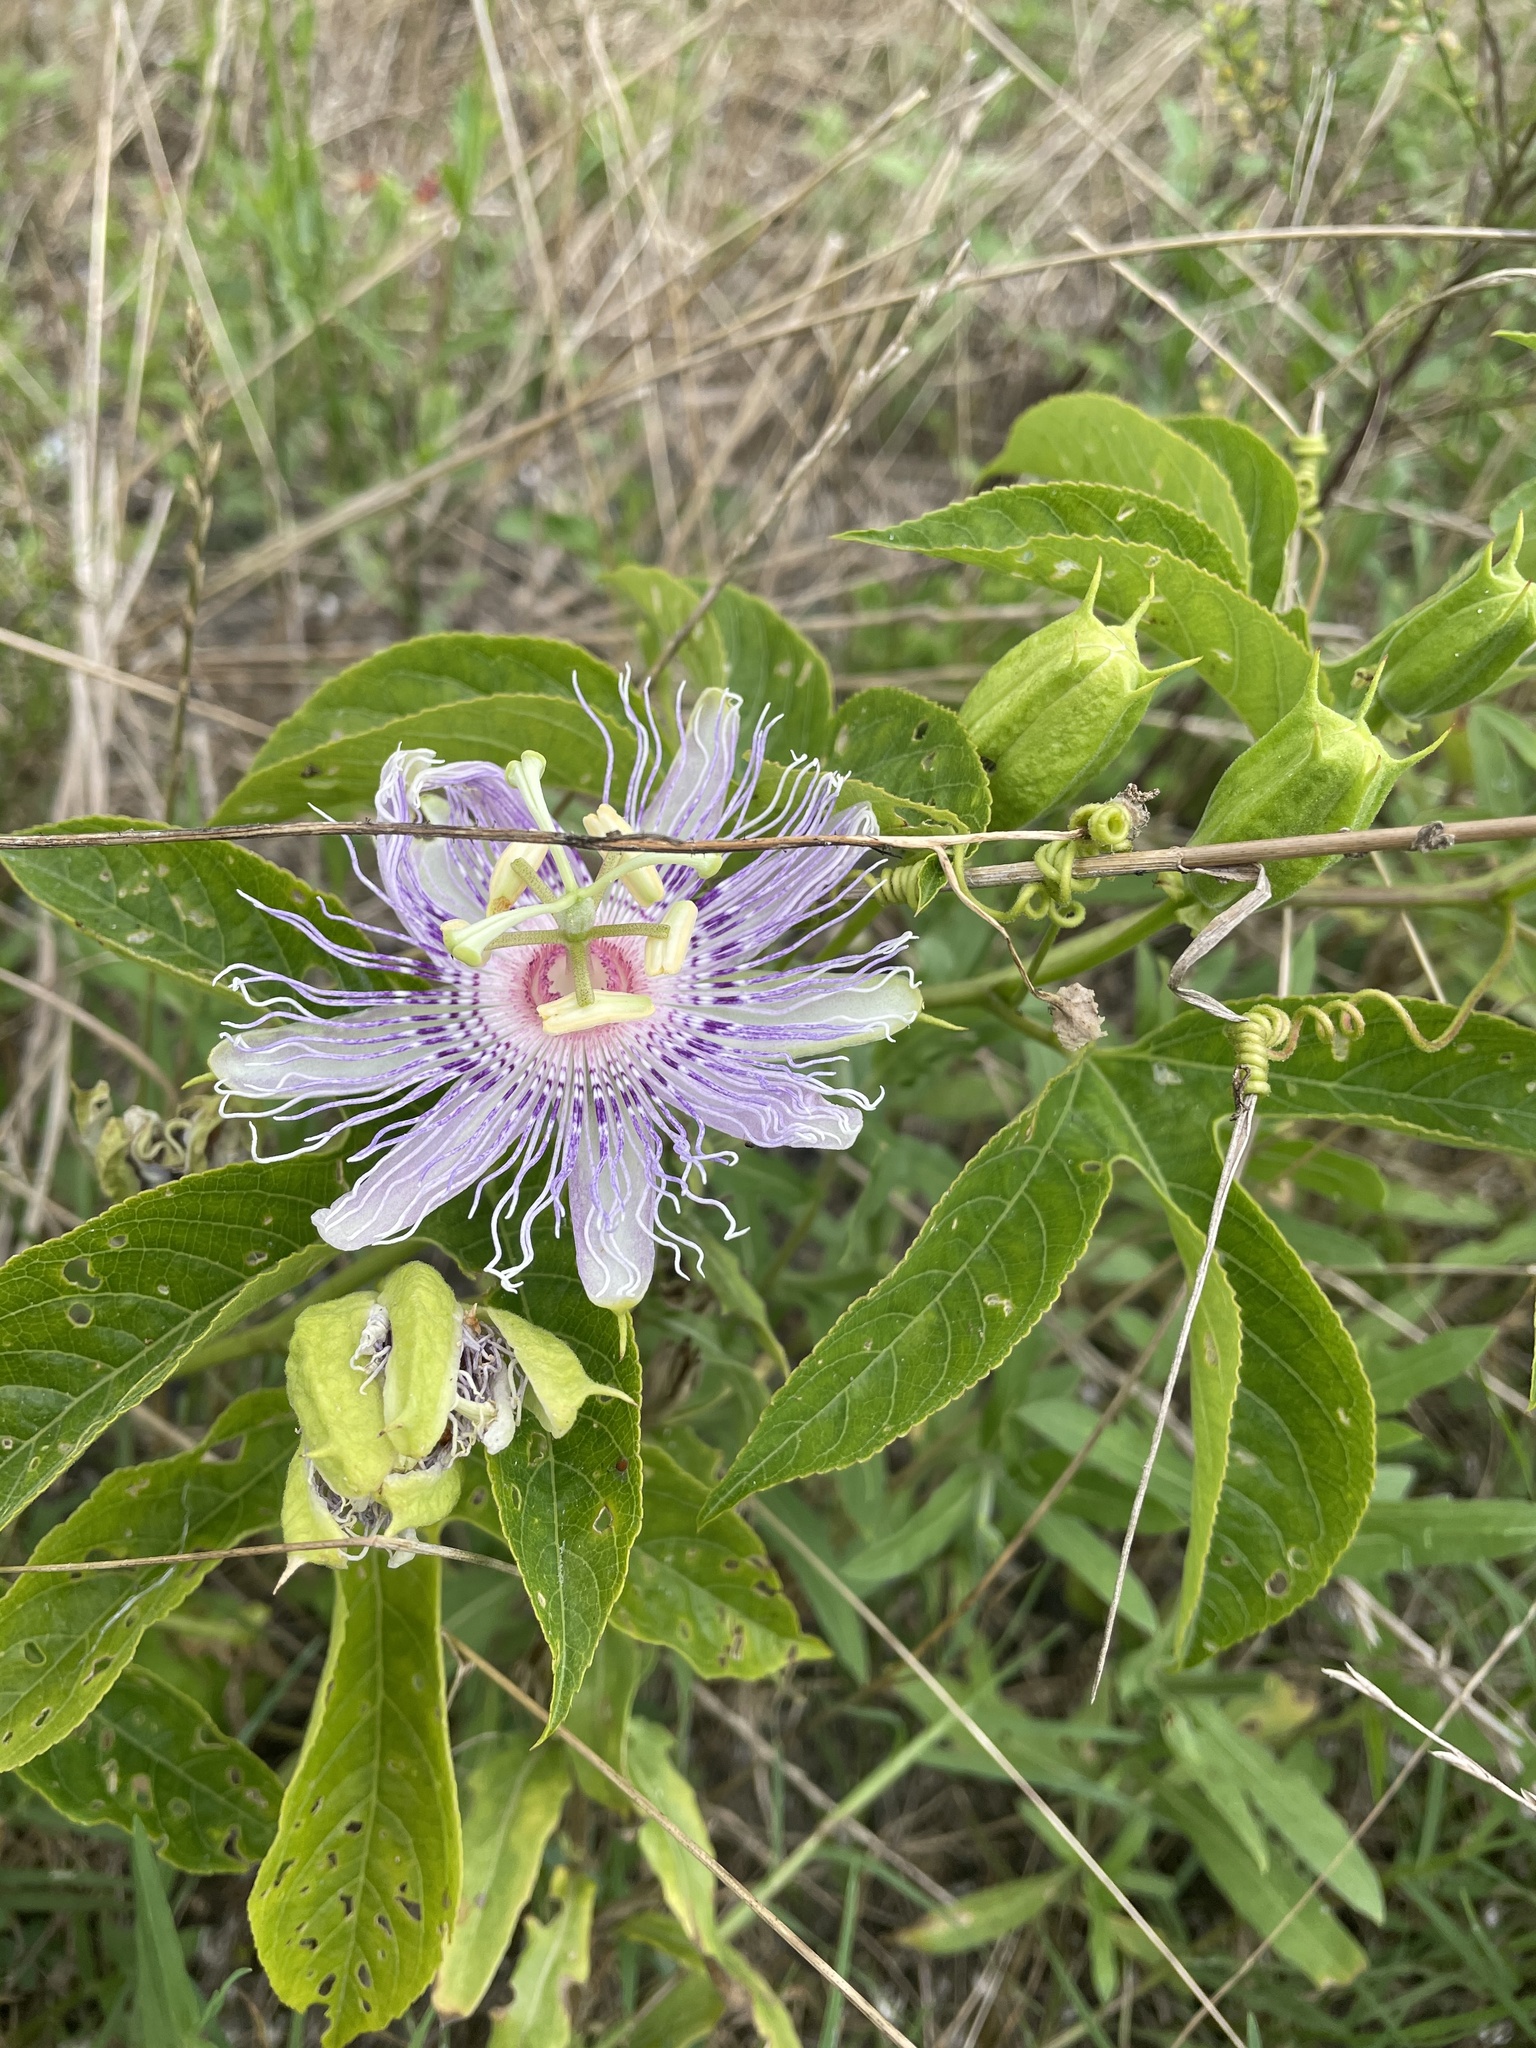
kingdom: Plantae
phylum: Tracheophyta
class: Magnoliopsida
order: Malpighiales
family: Passifloraceae
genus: Passiflora
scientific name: Passiflora incarnata
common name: Apricot-vine
